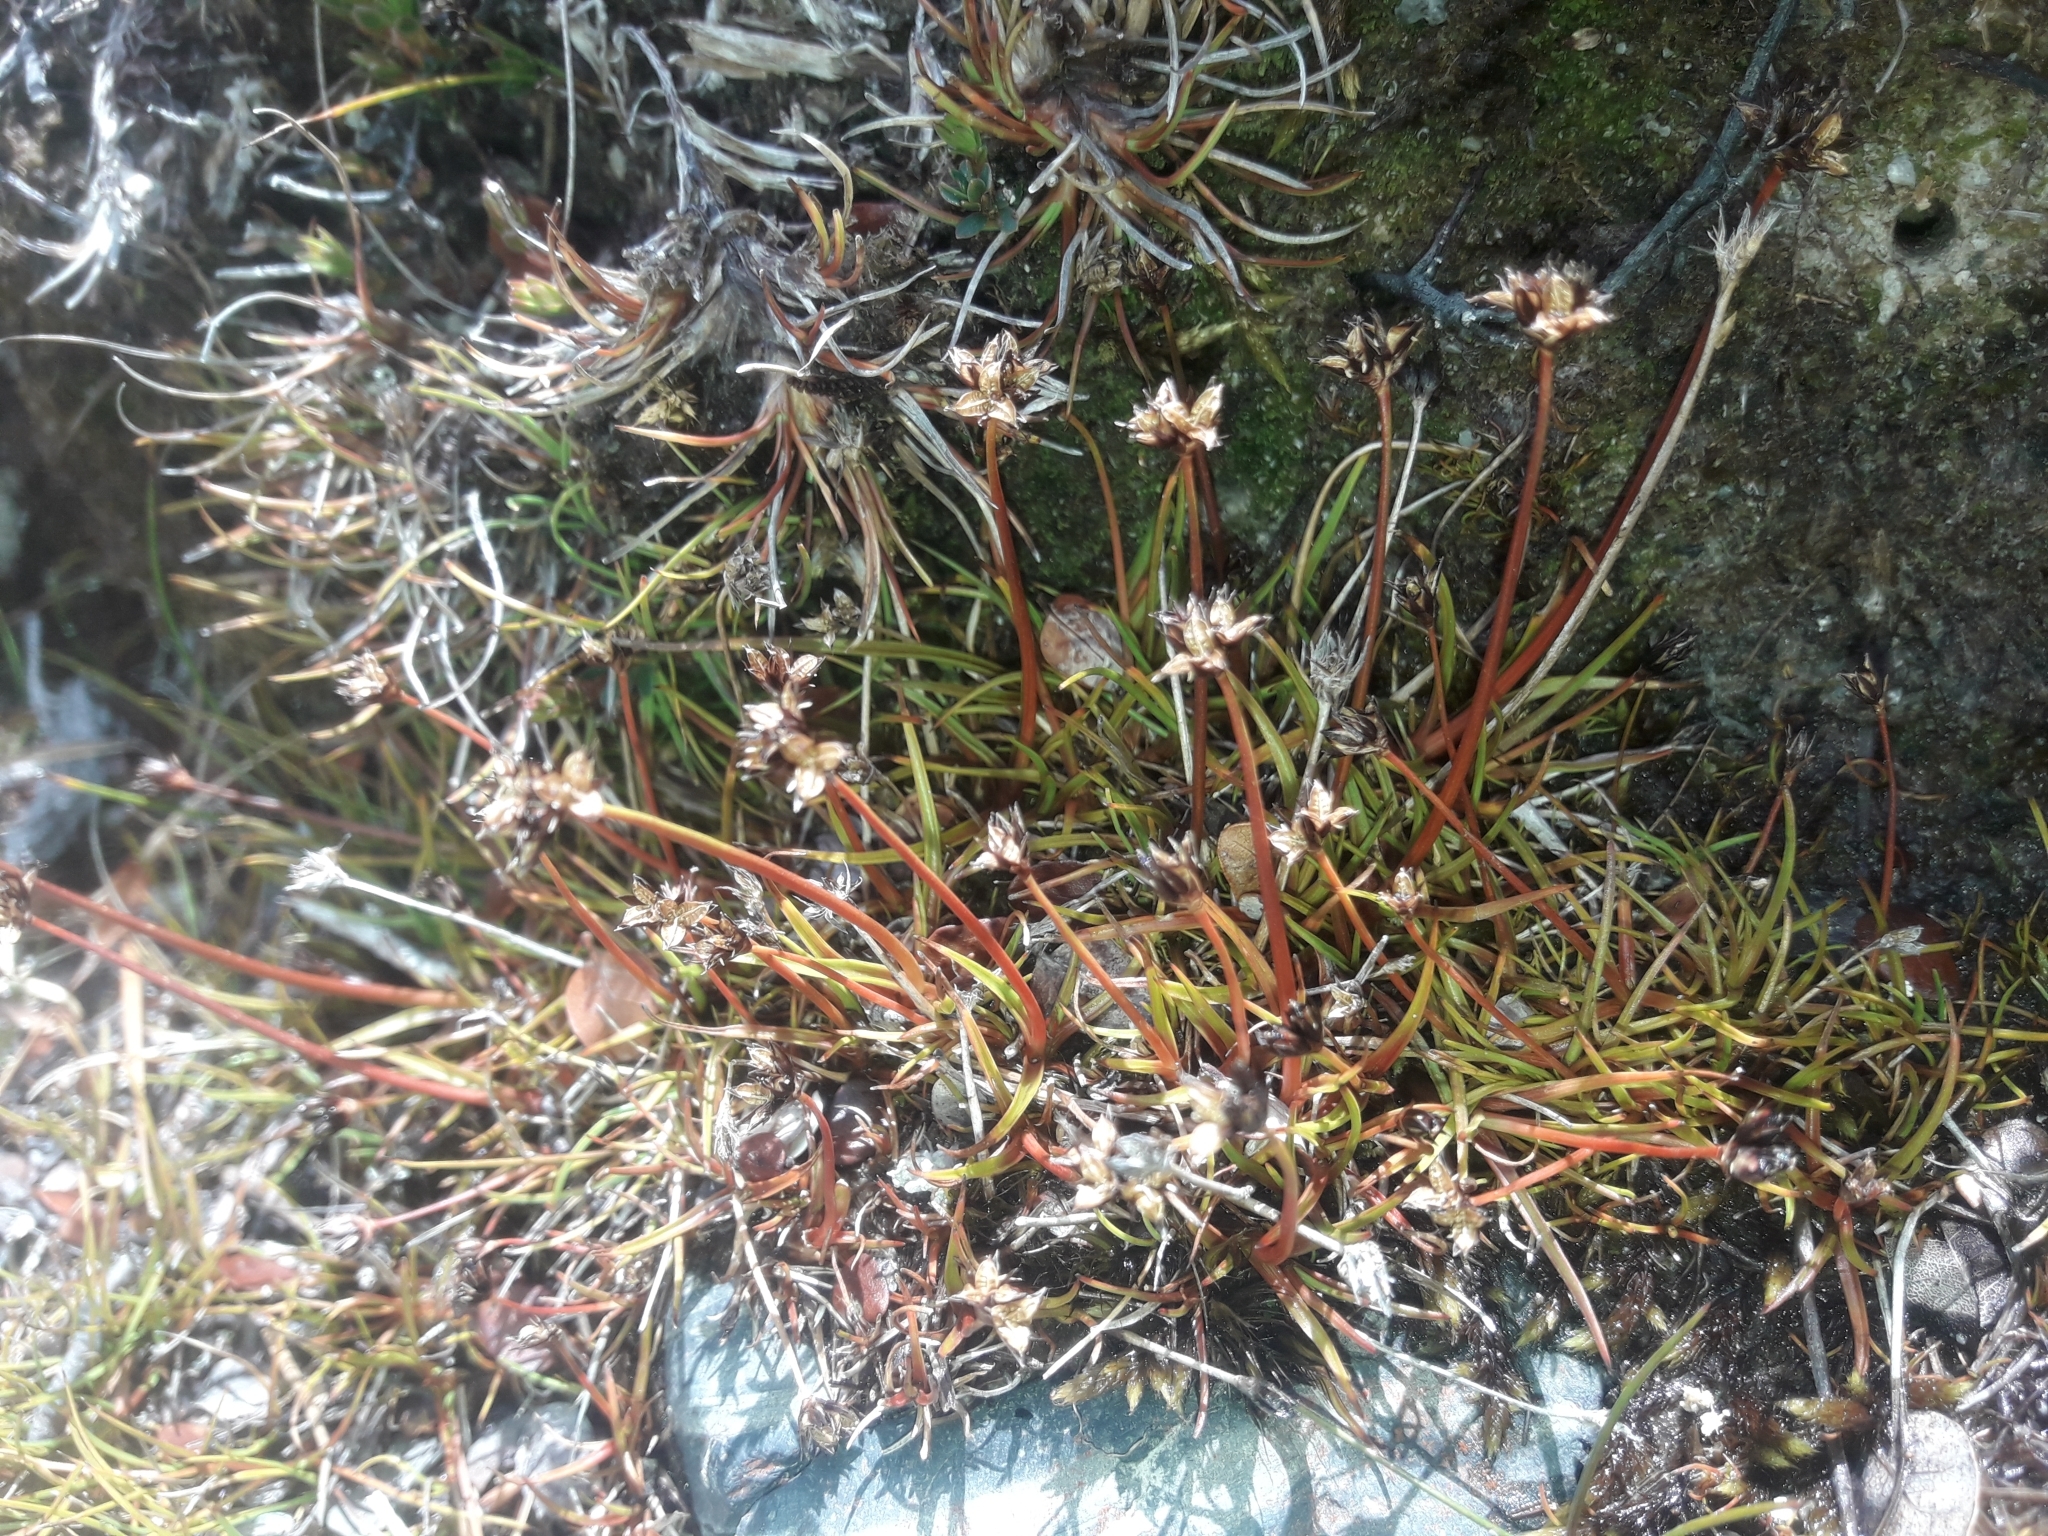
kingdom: Plantae
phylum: Tracheophyta
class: Liliopsida
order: Poales
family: Juncaceae
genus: Juncus
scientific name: Juncus antarcticus
